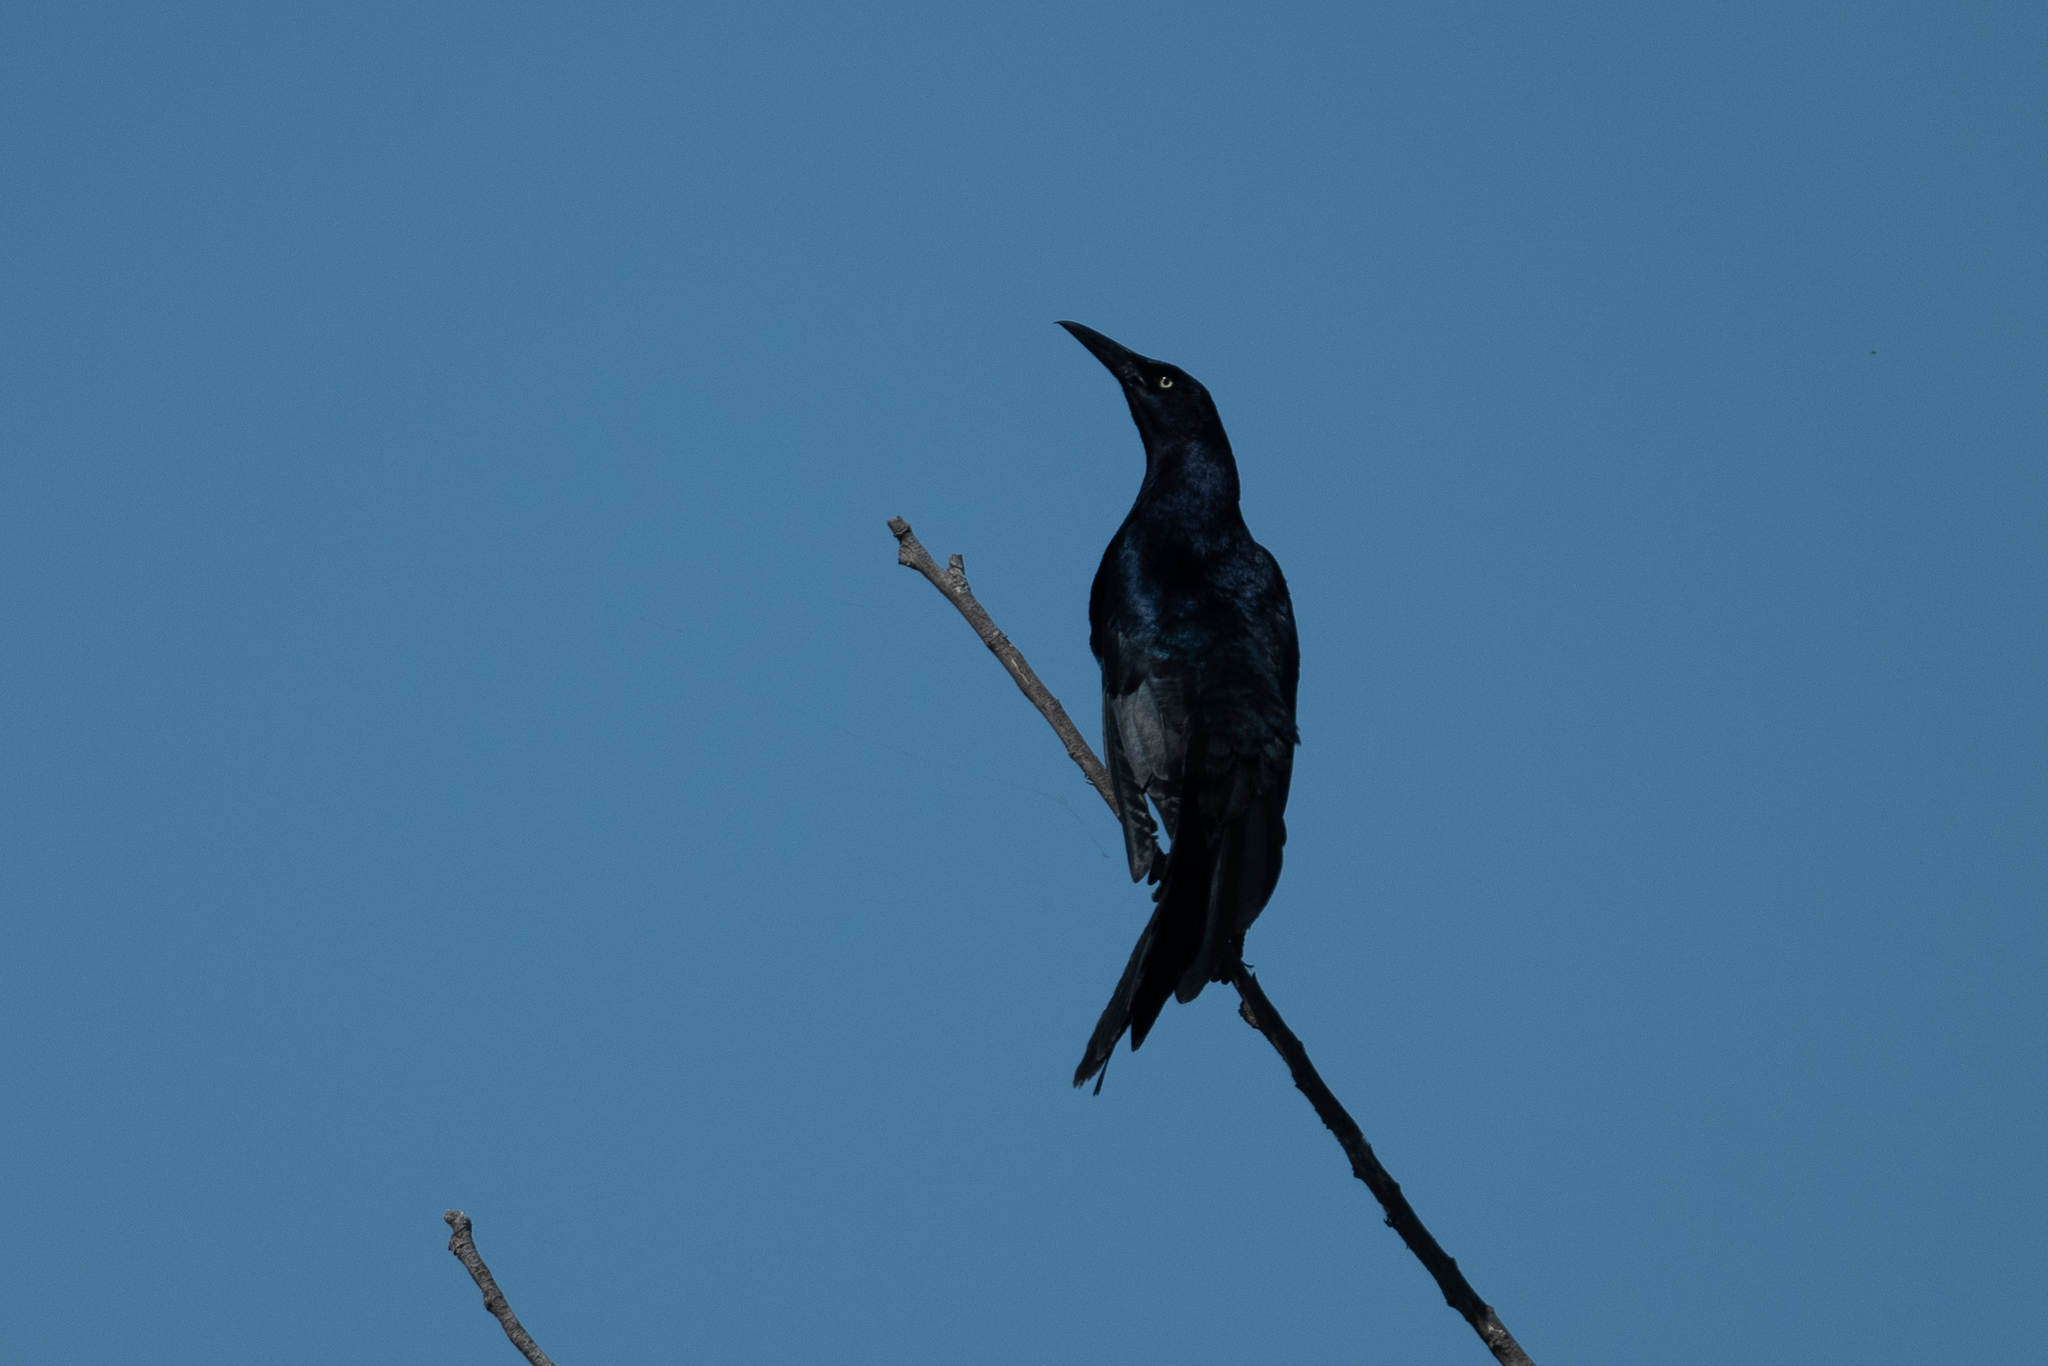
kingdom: Animalia
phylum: Chordata
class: Aves
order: Passeriformes
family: Icteridae
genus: Quiscalus
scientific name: Quiscalus mexicanus
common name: Great-tailed grackle
